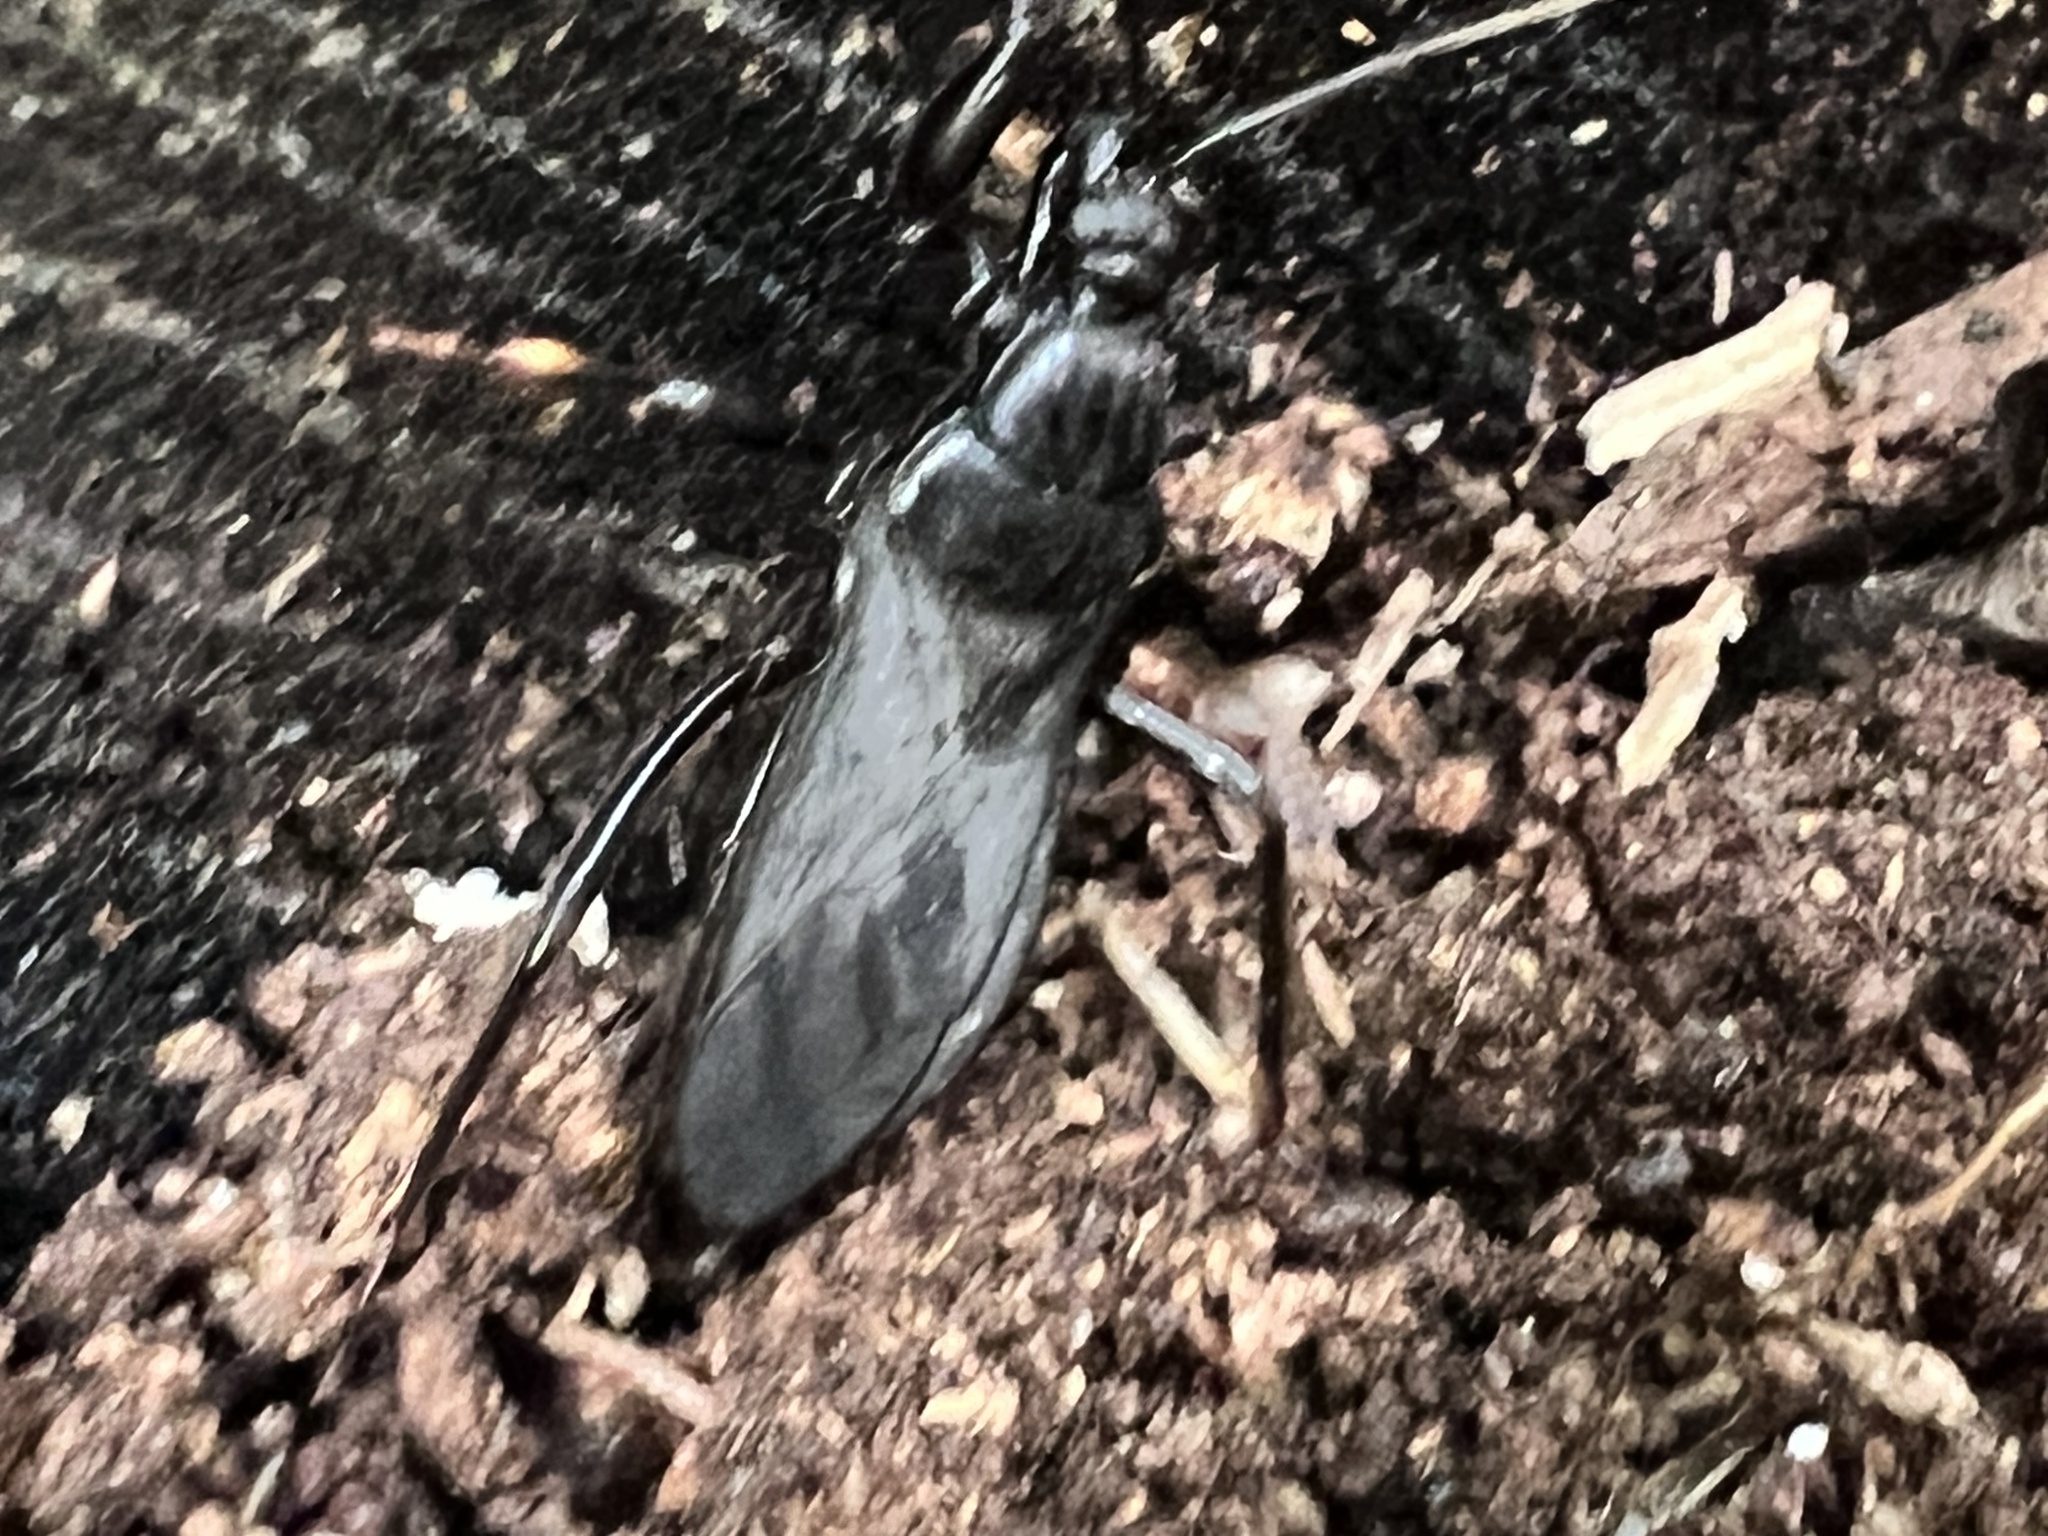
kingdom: Animalia
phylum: Arthropoda
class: Insecta
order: Hemiptera
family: Reduviidae
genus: Melanolestes
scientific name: Melanolestes picipes
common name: Assassin bug
